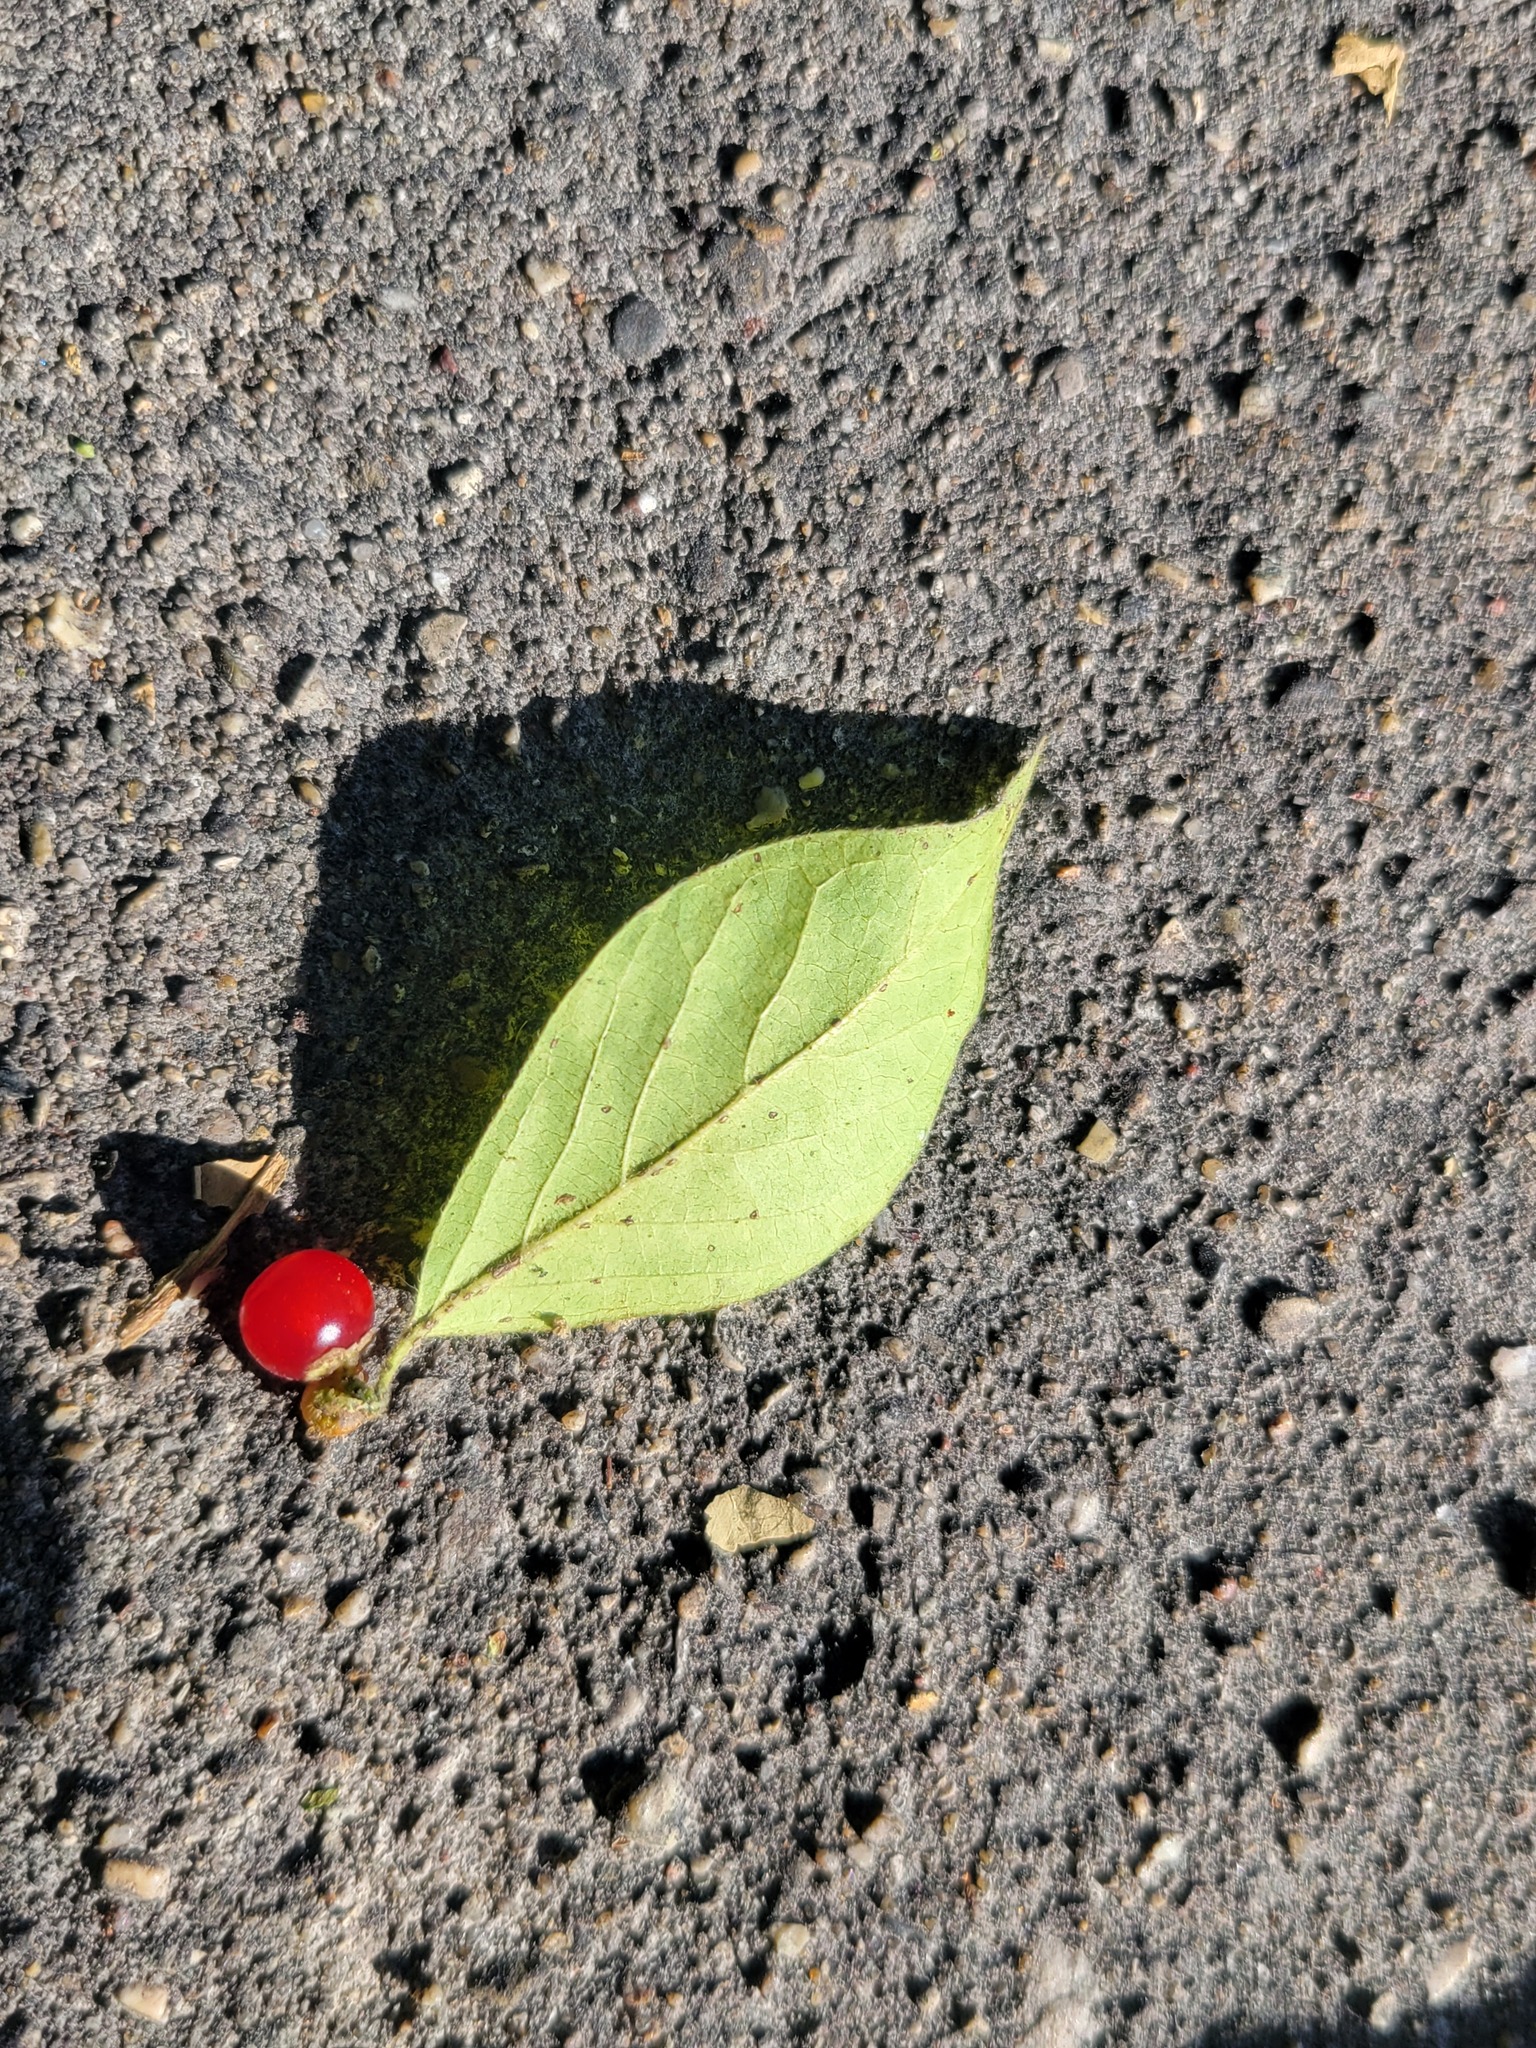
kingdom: Plantae
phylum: Tracheophyta
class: Magnoliopsida
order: Dipsacales
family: Caprifoliaceae
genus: Lonicera
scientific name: Lonicera maackii
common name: Amur honeysuckle
